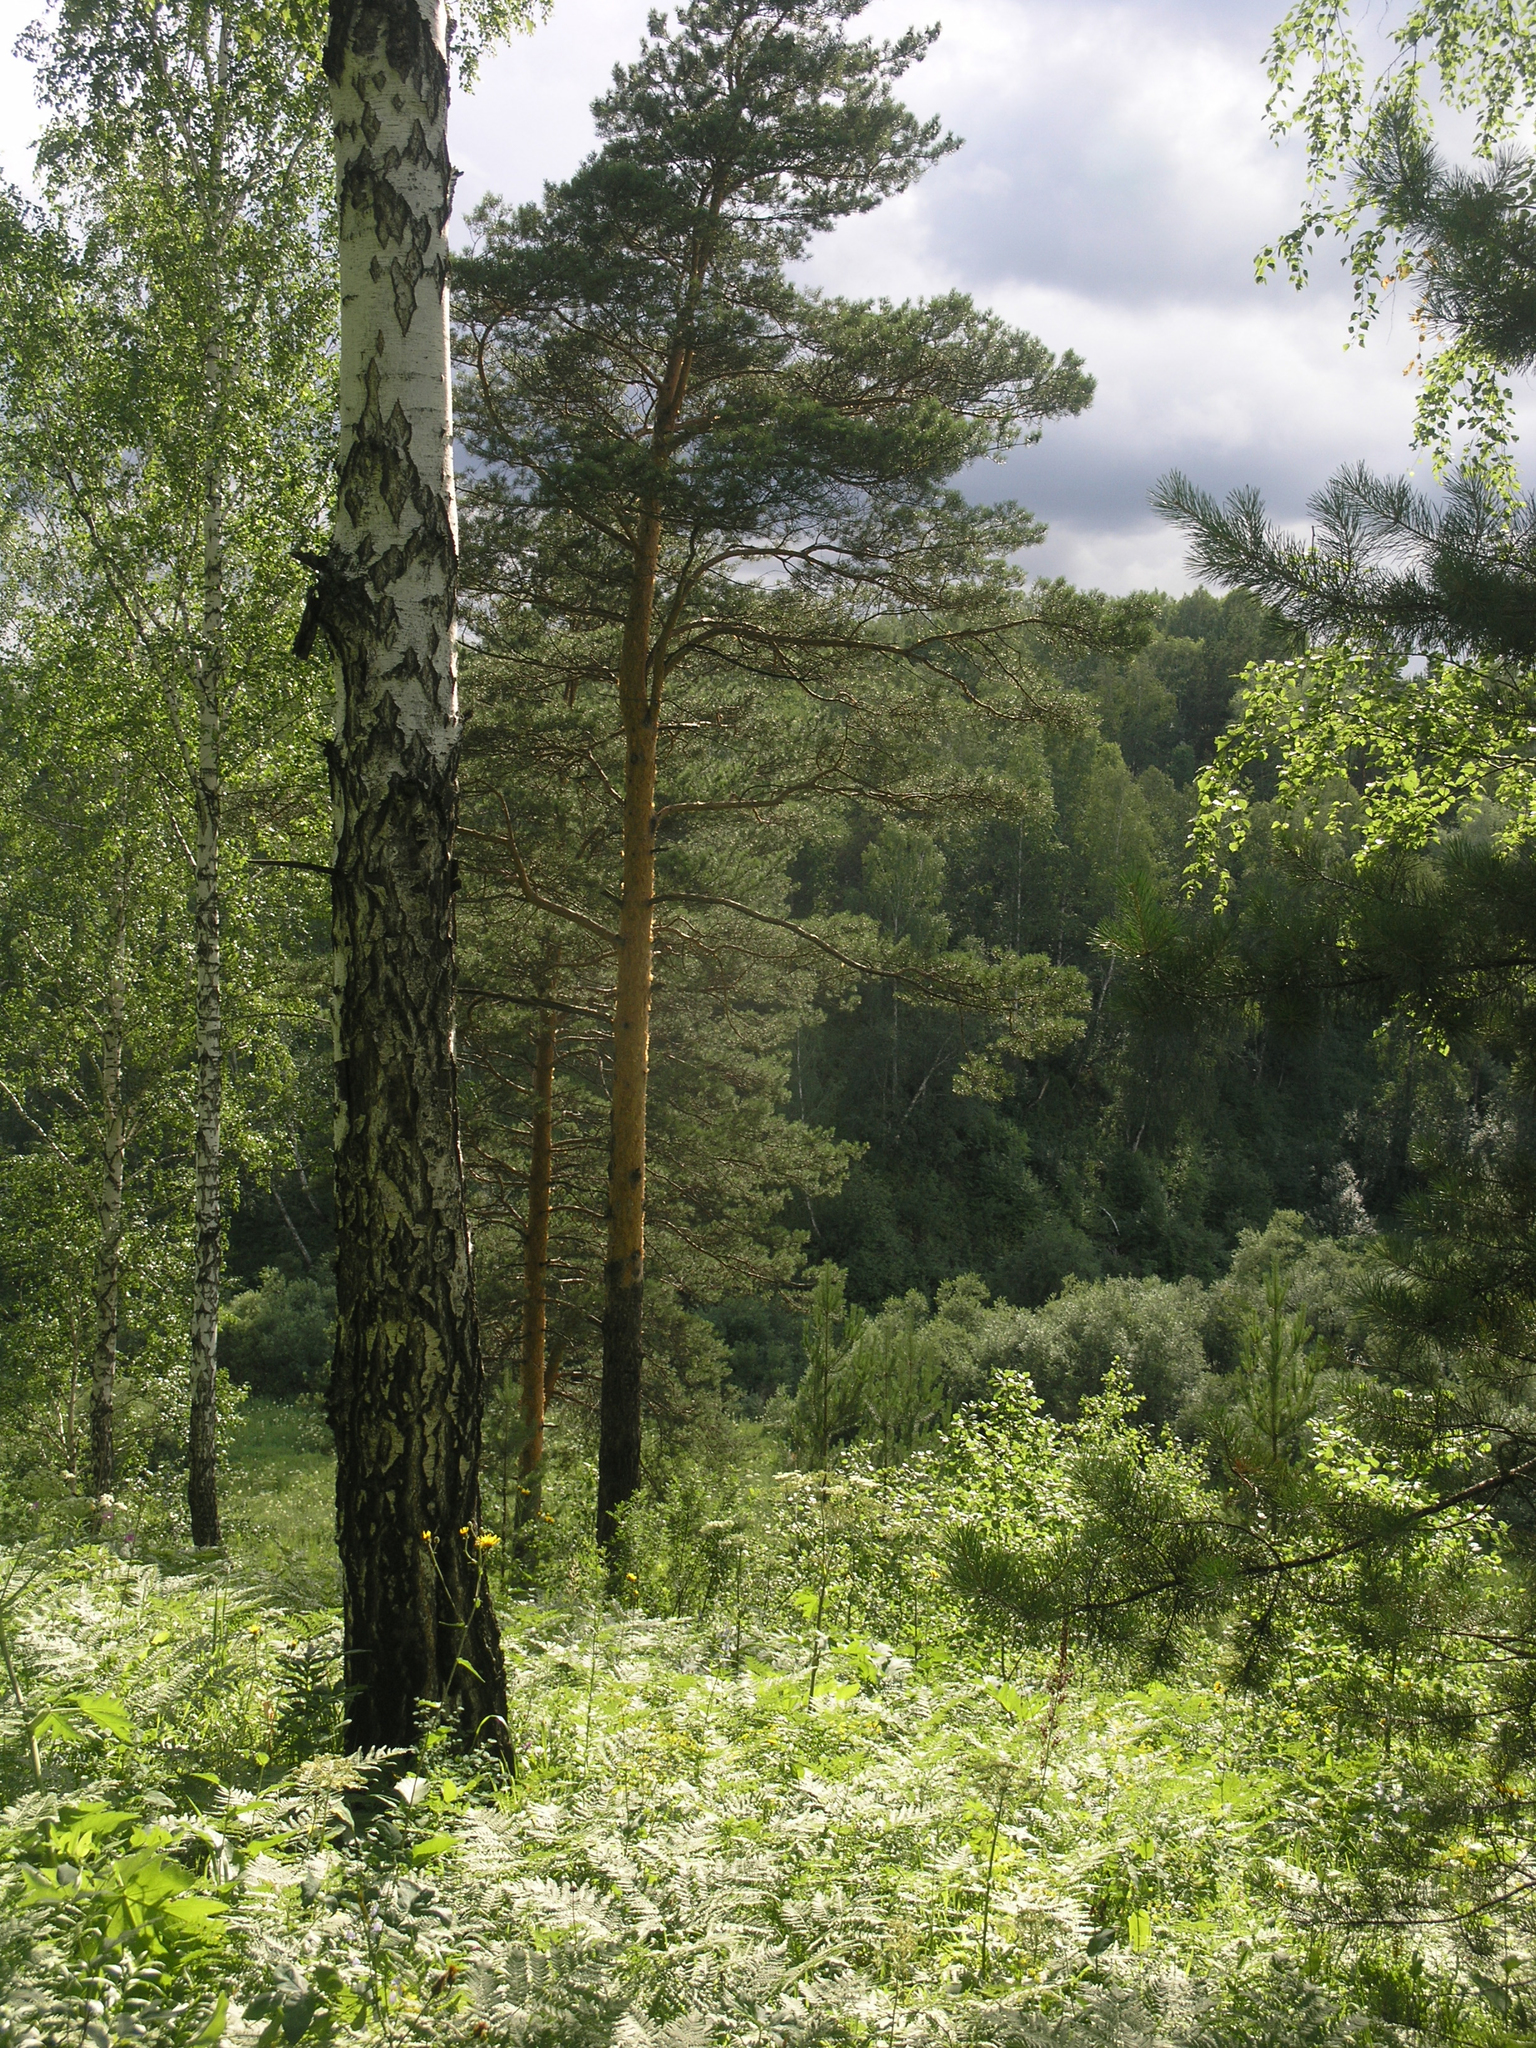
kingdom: Plantae
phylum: Tracheophyta
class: Pinopsida
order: Pinales
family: Pinaceae
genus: Pinus
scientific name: Pinus sylvestris
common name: Scots pine
